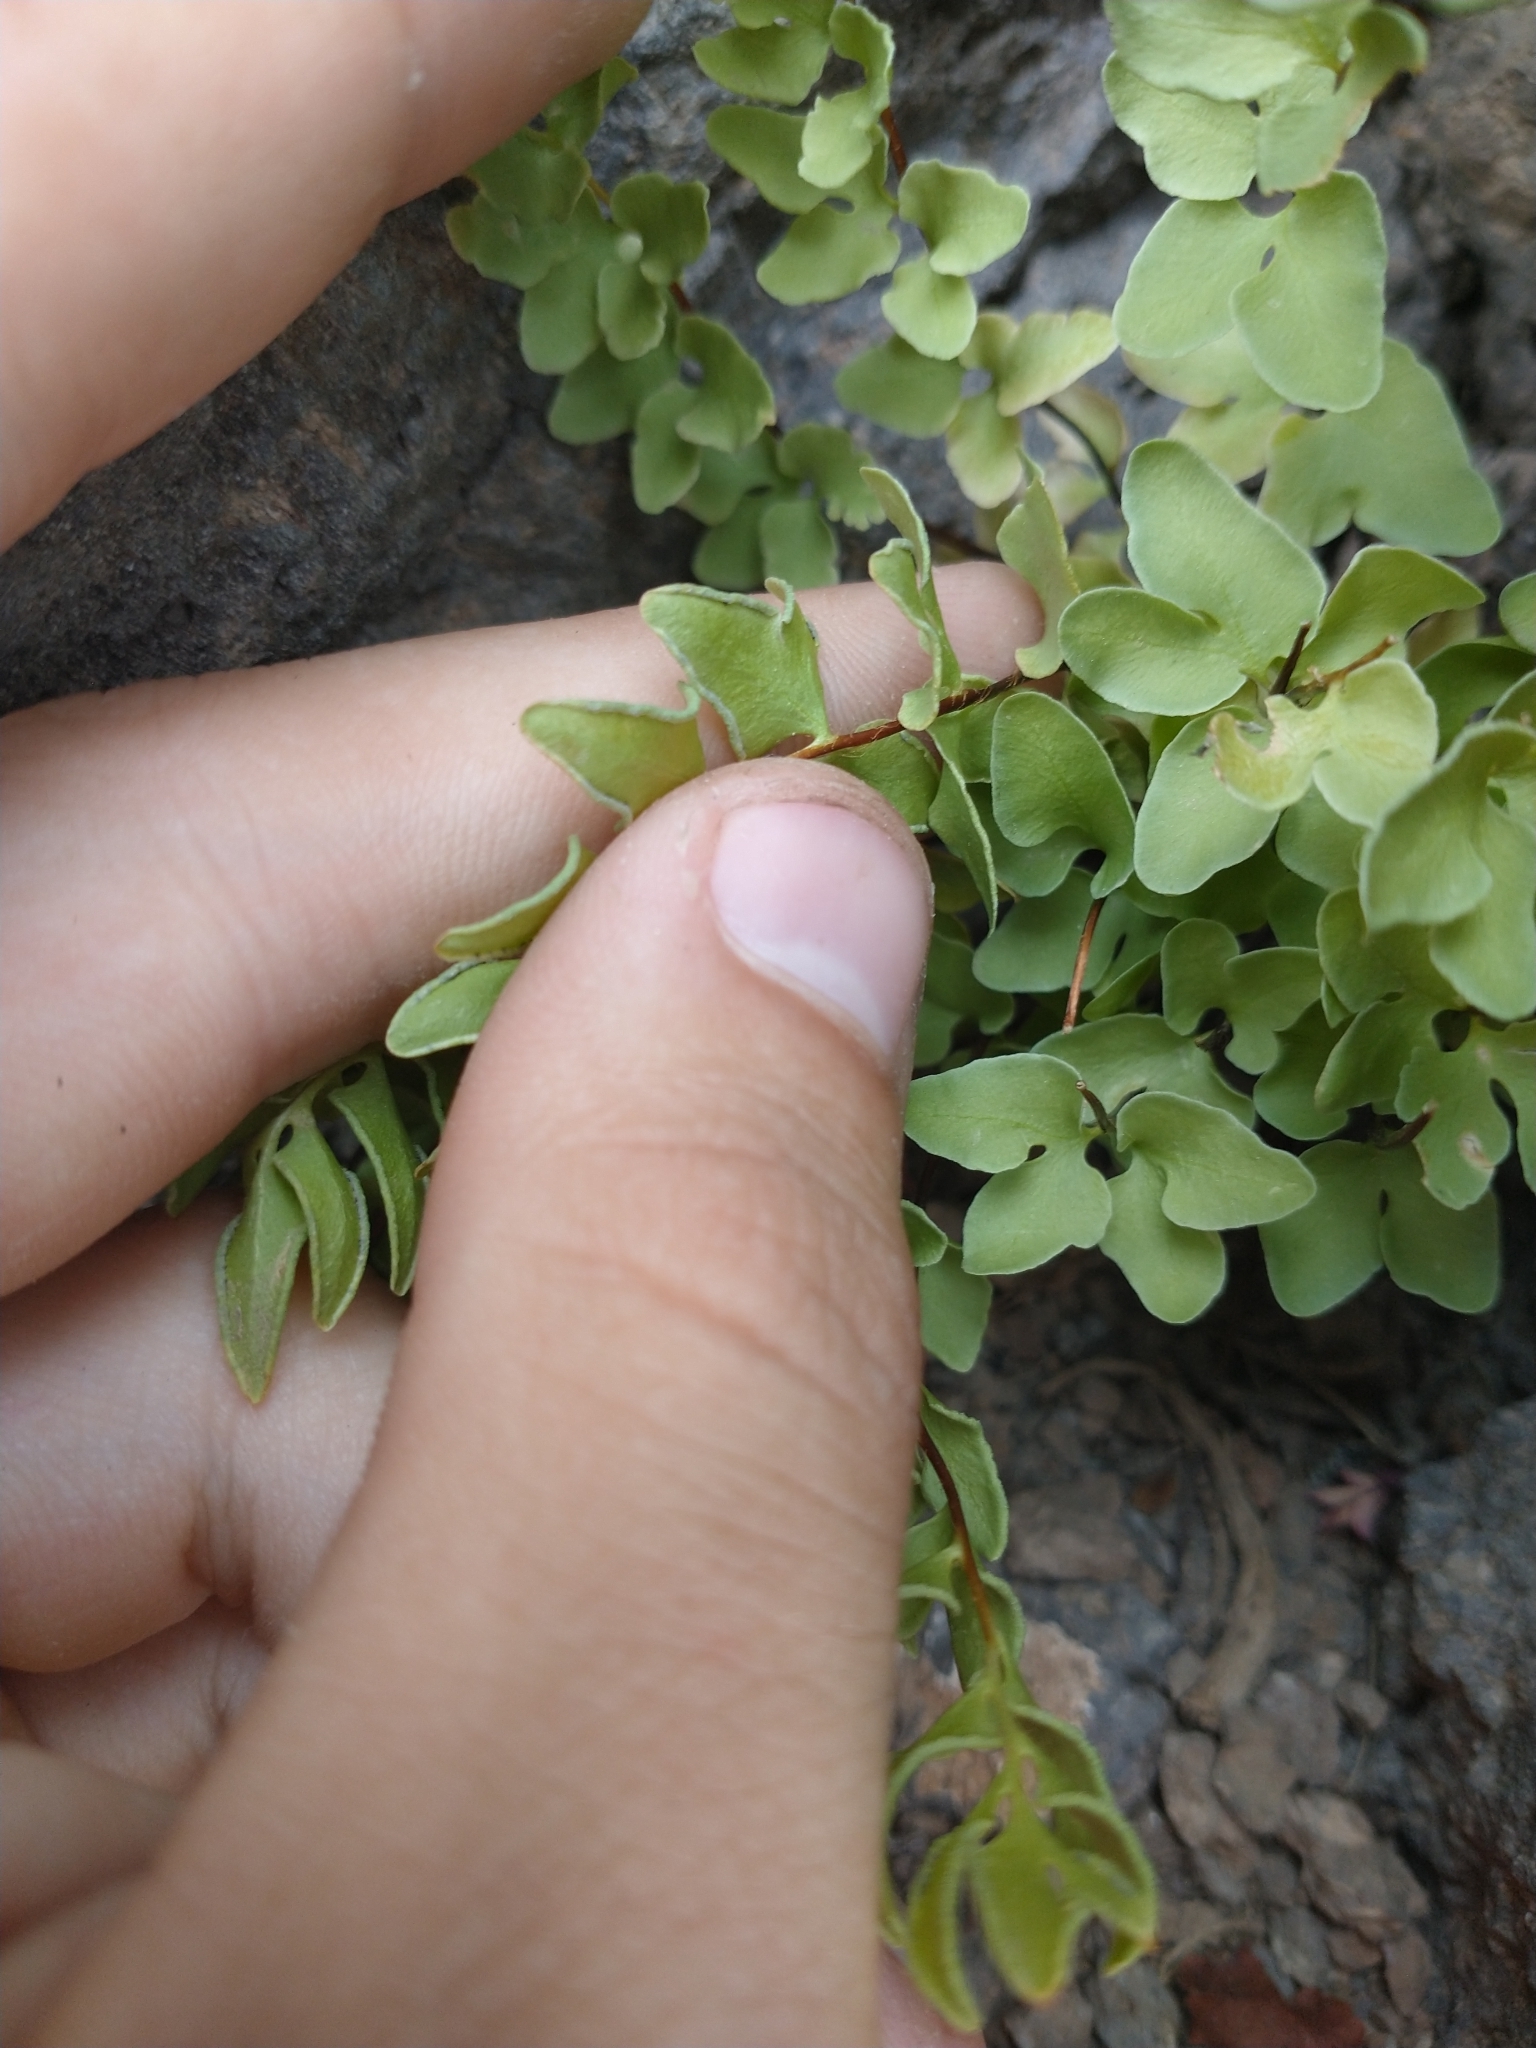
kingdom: Plantae
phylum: Tracheophyta
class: Polypodiopsida
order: Polypodiales
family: Pteridaceae
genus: Pellaea
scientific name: Pellaea breweri
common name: Brewer's cliffbrake
